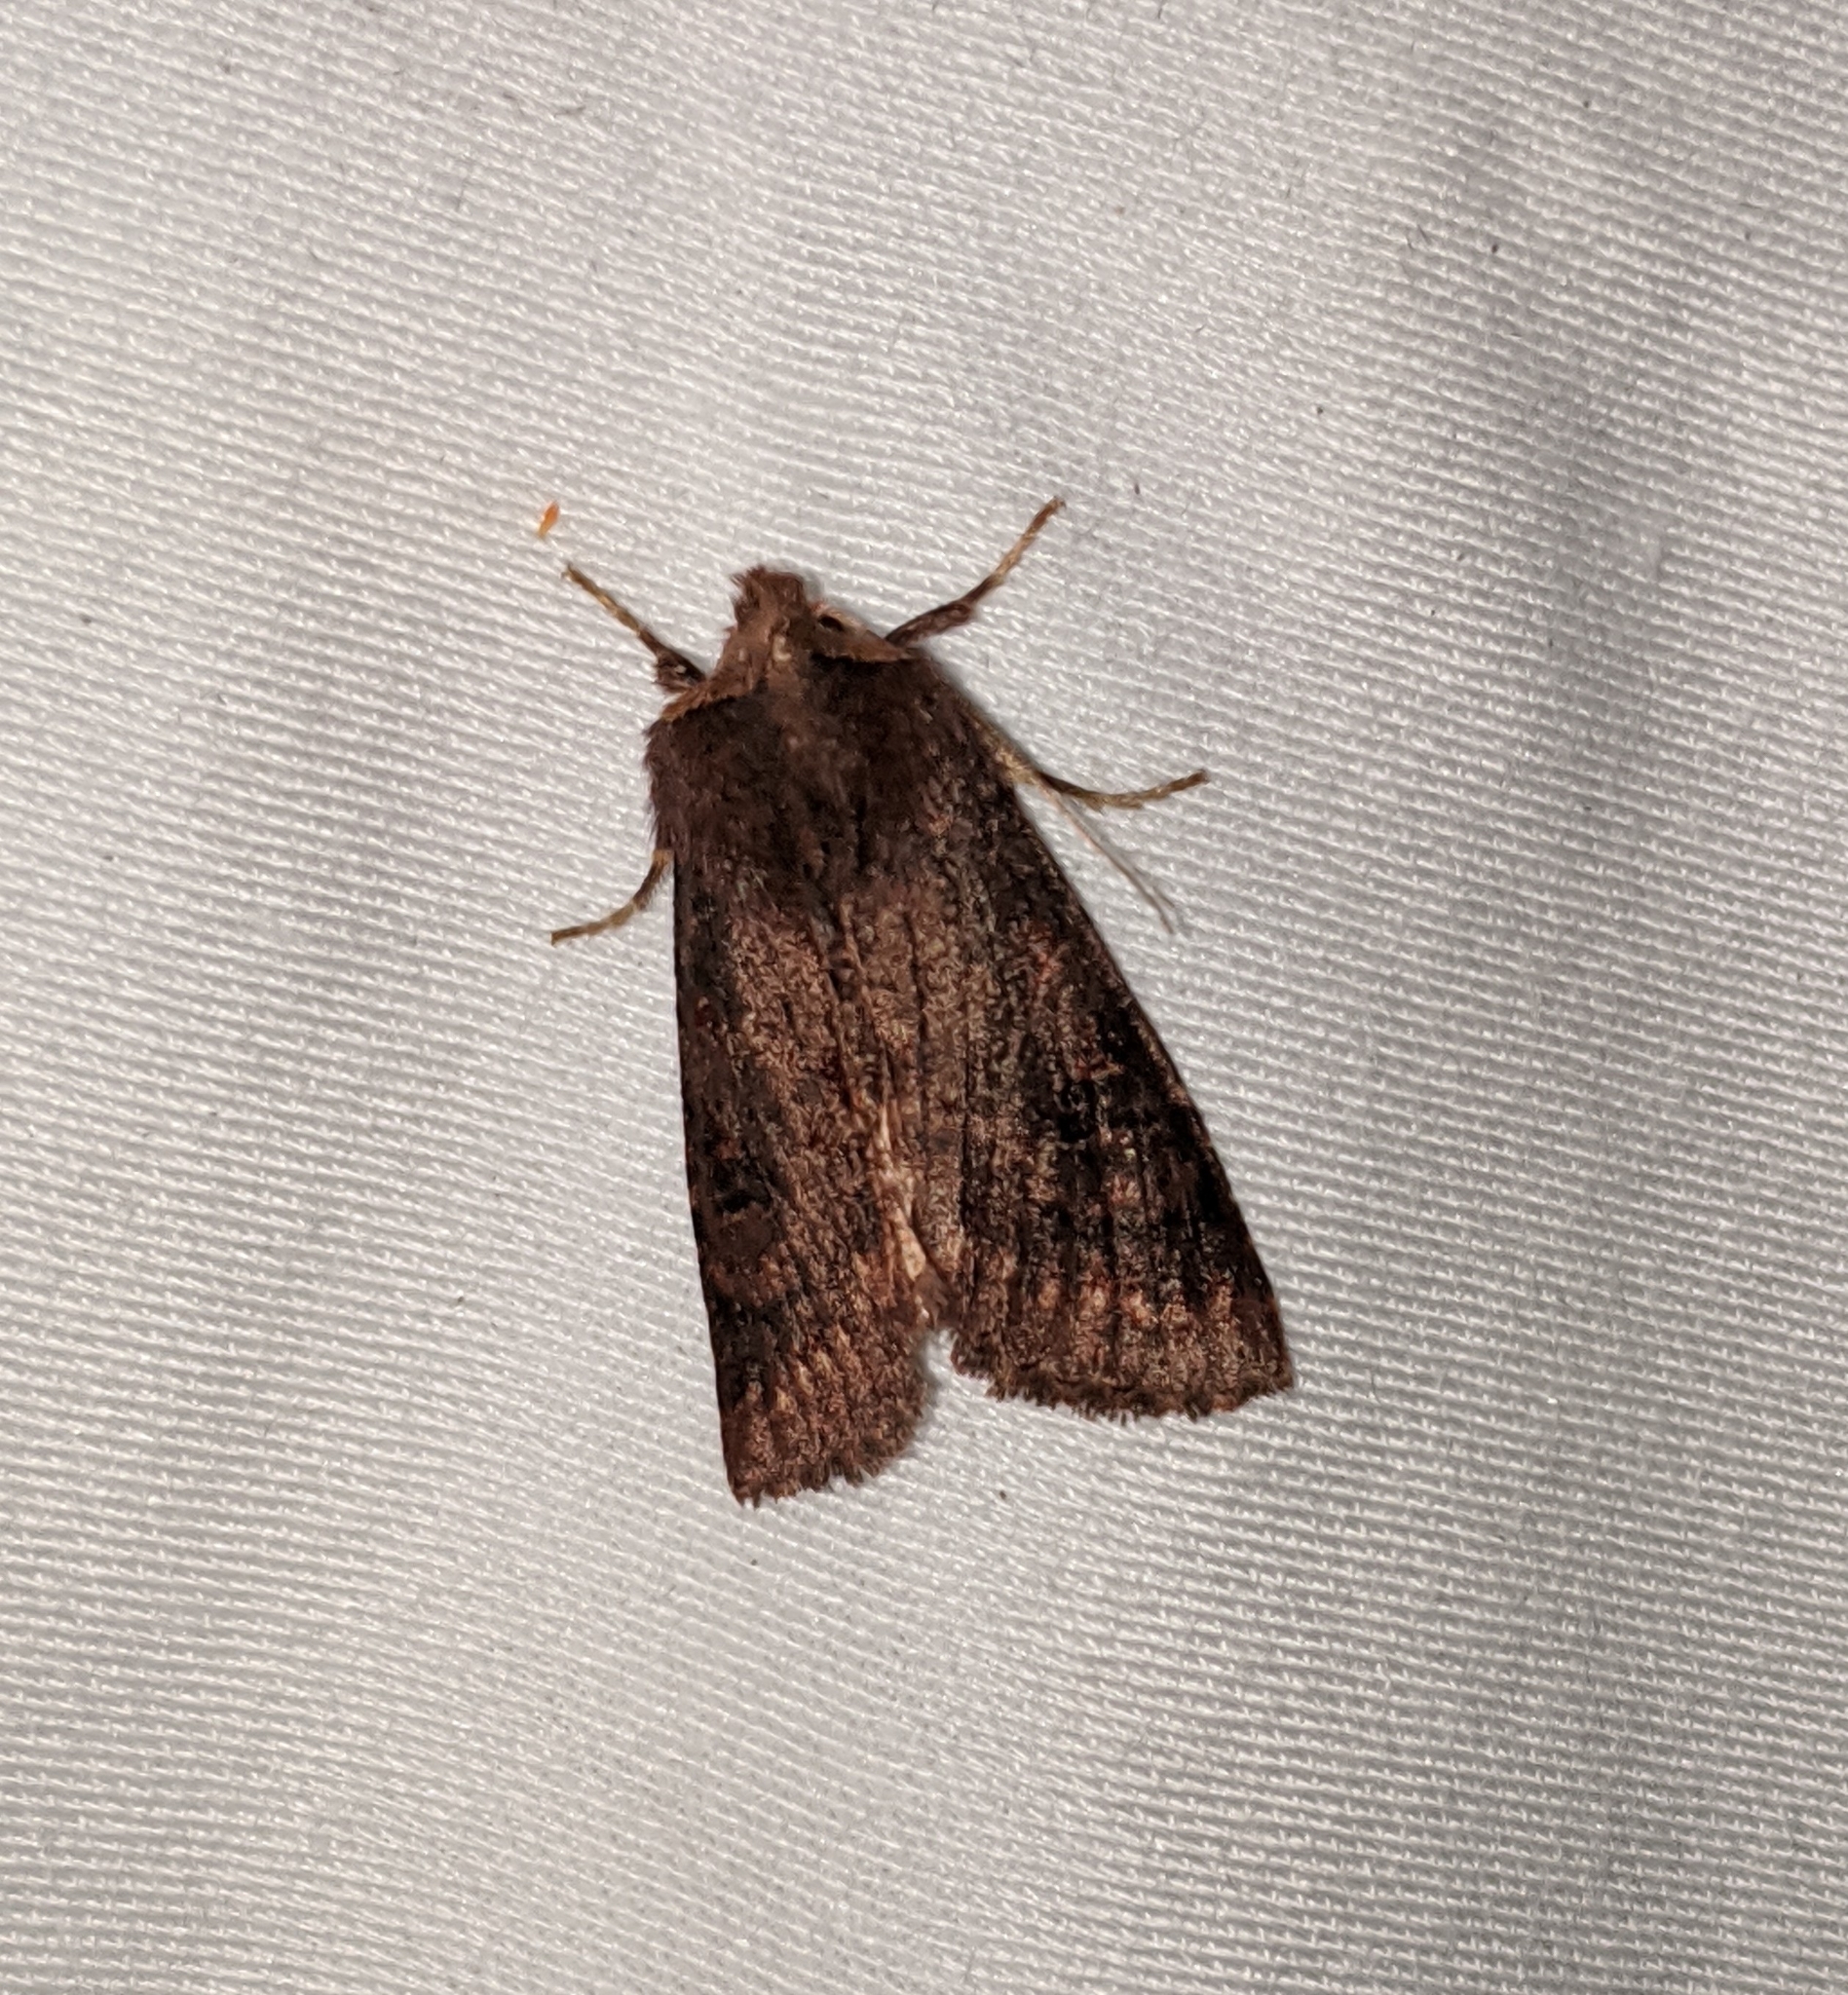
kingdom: Animalia
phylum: Arthropoda
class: Insecta
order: Lepidoptera
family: Noctuidae
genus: Orthosia
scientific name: Orthosia praeses
